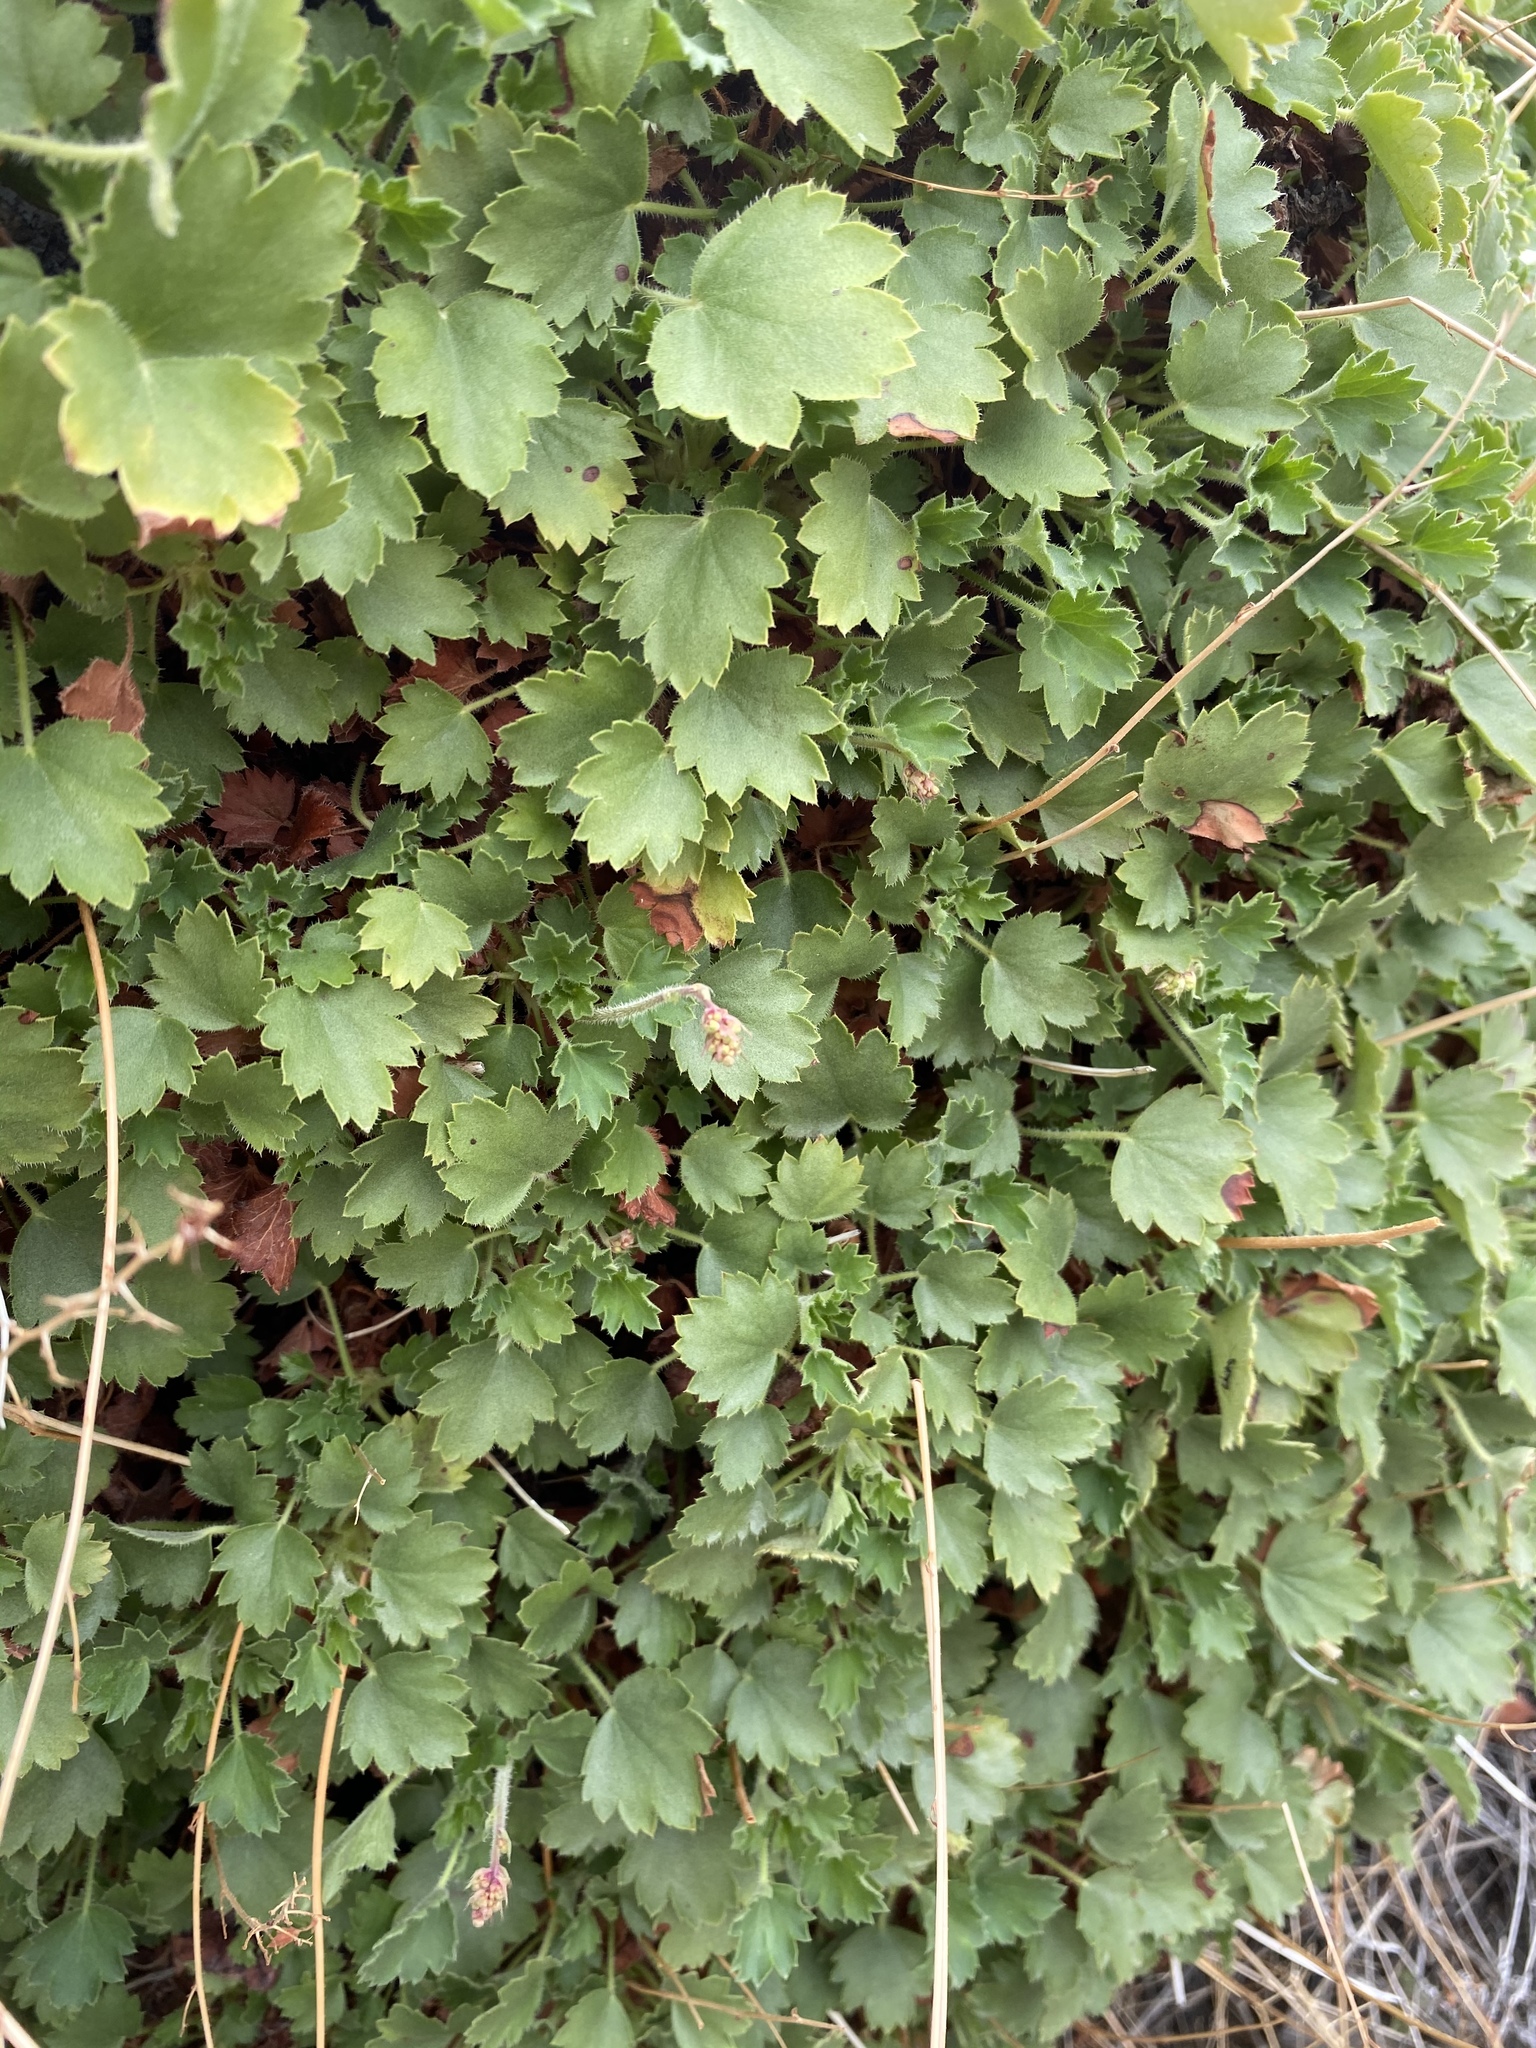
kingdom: Plantae
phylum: Tracheophyta
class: Magnoliopsida
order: Saxifragales
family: Saxifragaceae
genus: Heuchera
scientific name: Heuchera rubescens
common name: Jack-o'the-rocks
